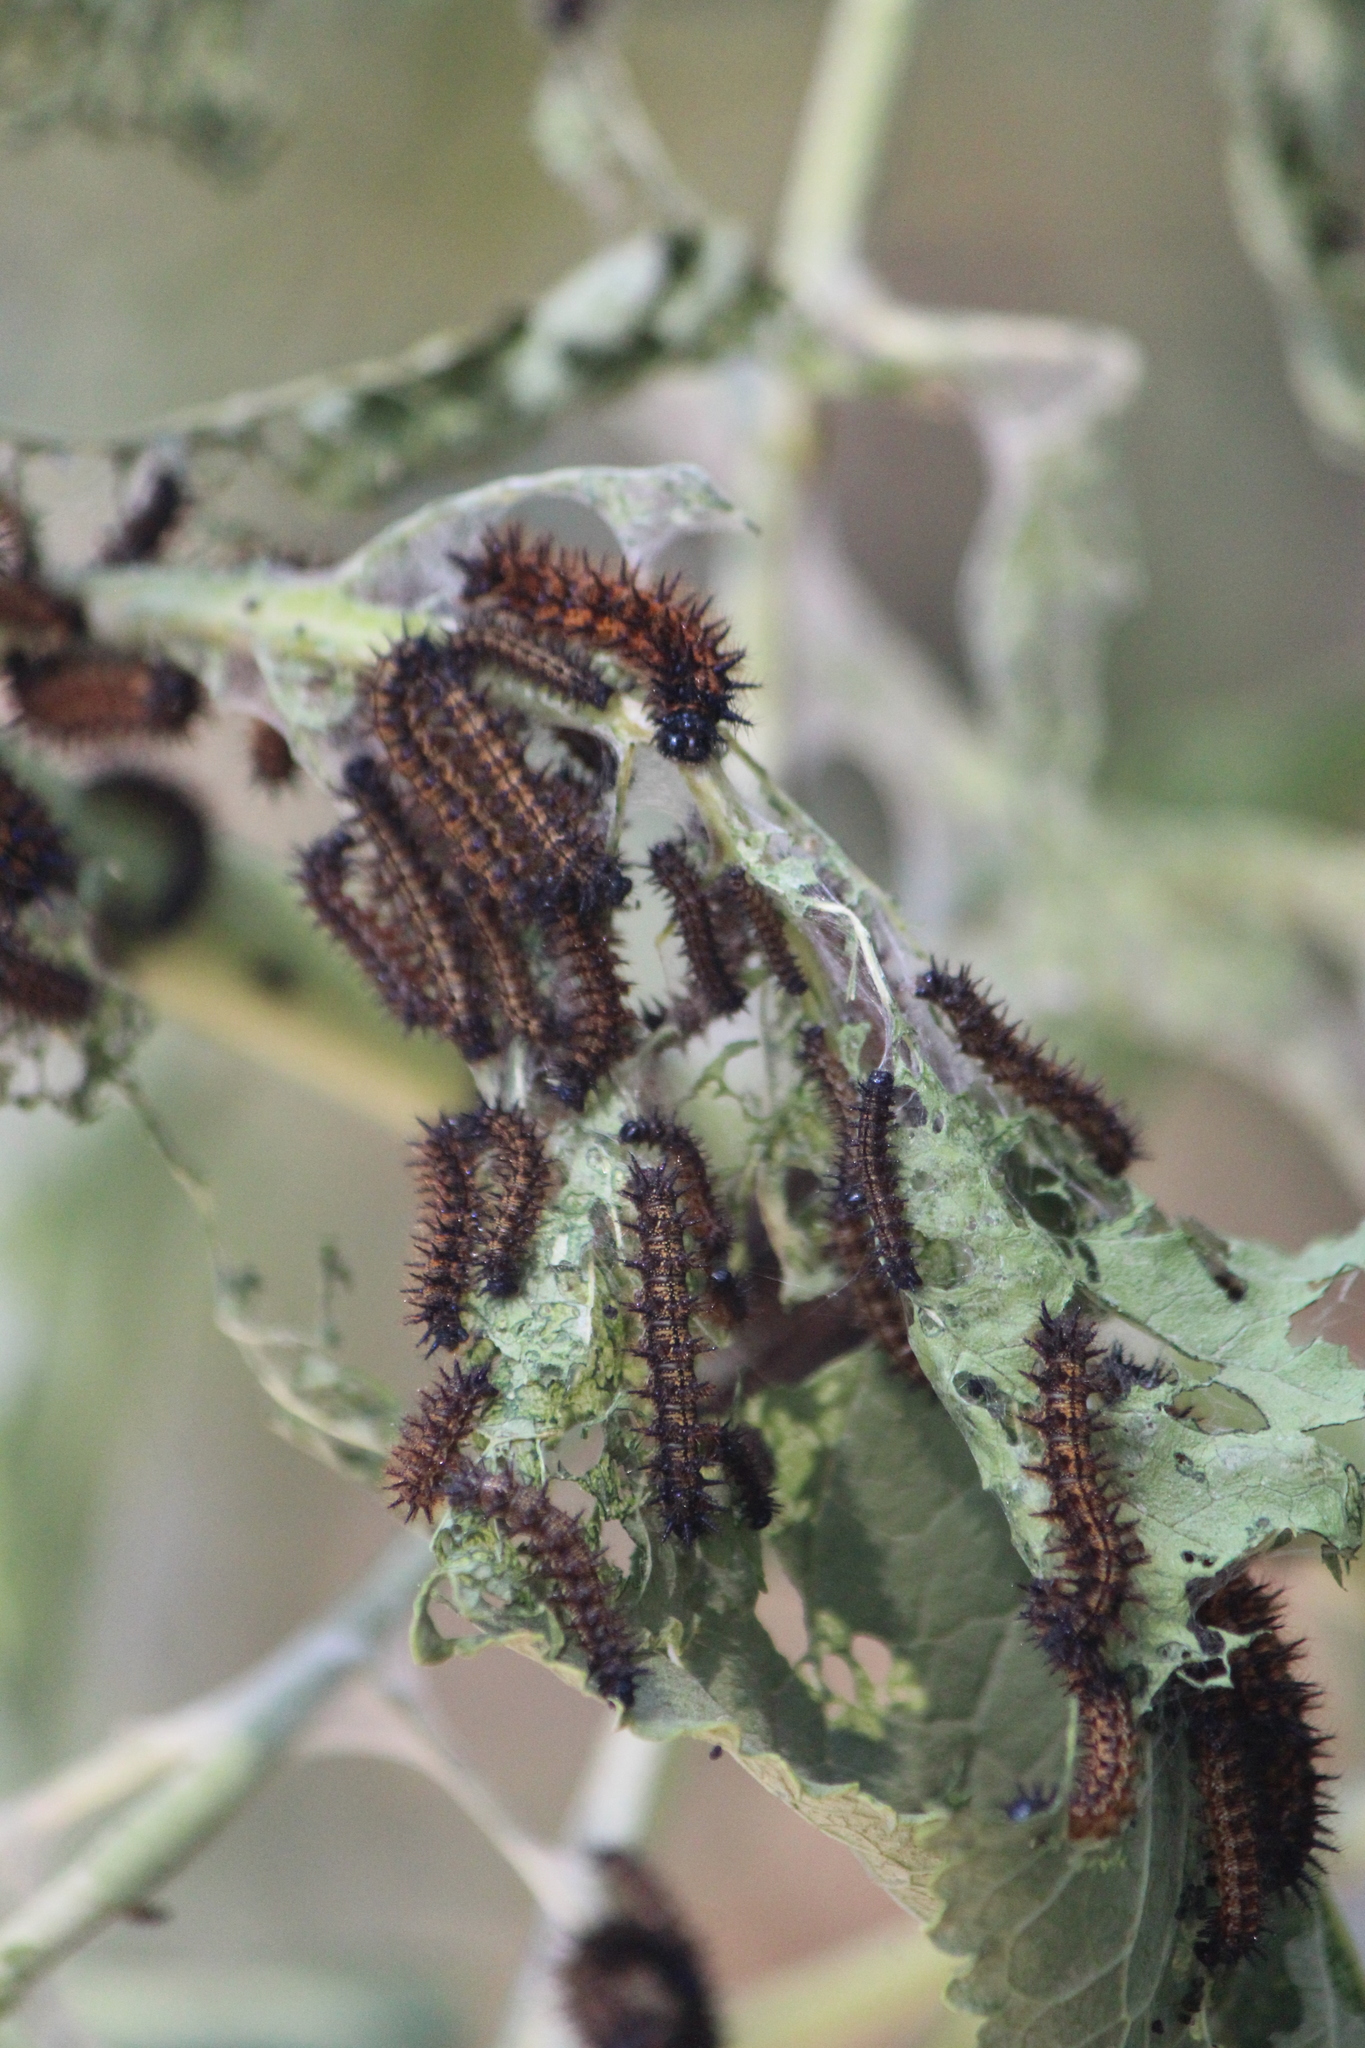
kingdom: Animalia
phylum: Arthropoda
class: Insecta
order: Lepidoptera
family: Nymphalidae
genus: Chlosyne
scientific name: Chlosyne ehrenbergii
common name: White-rayed patch
